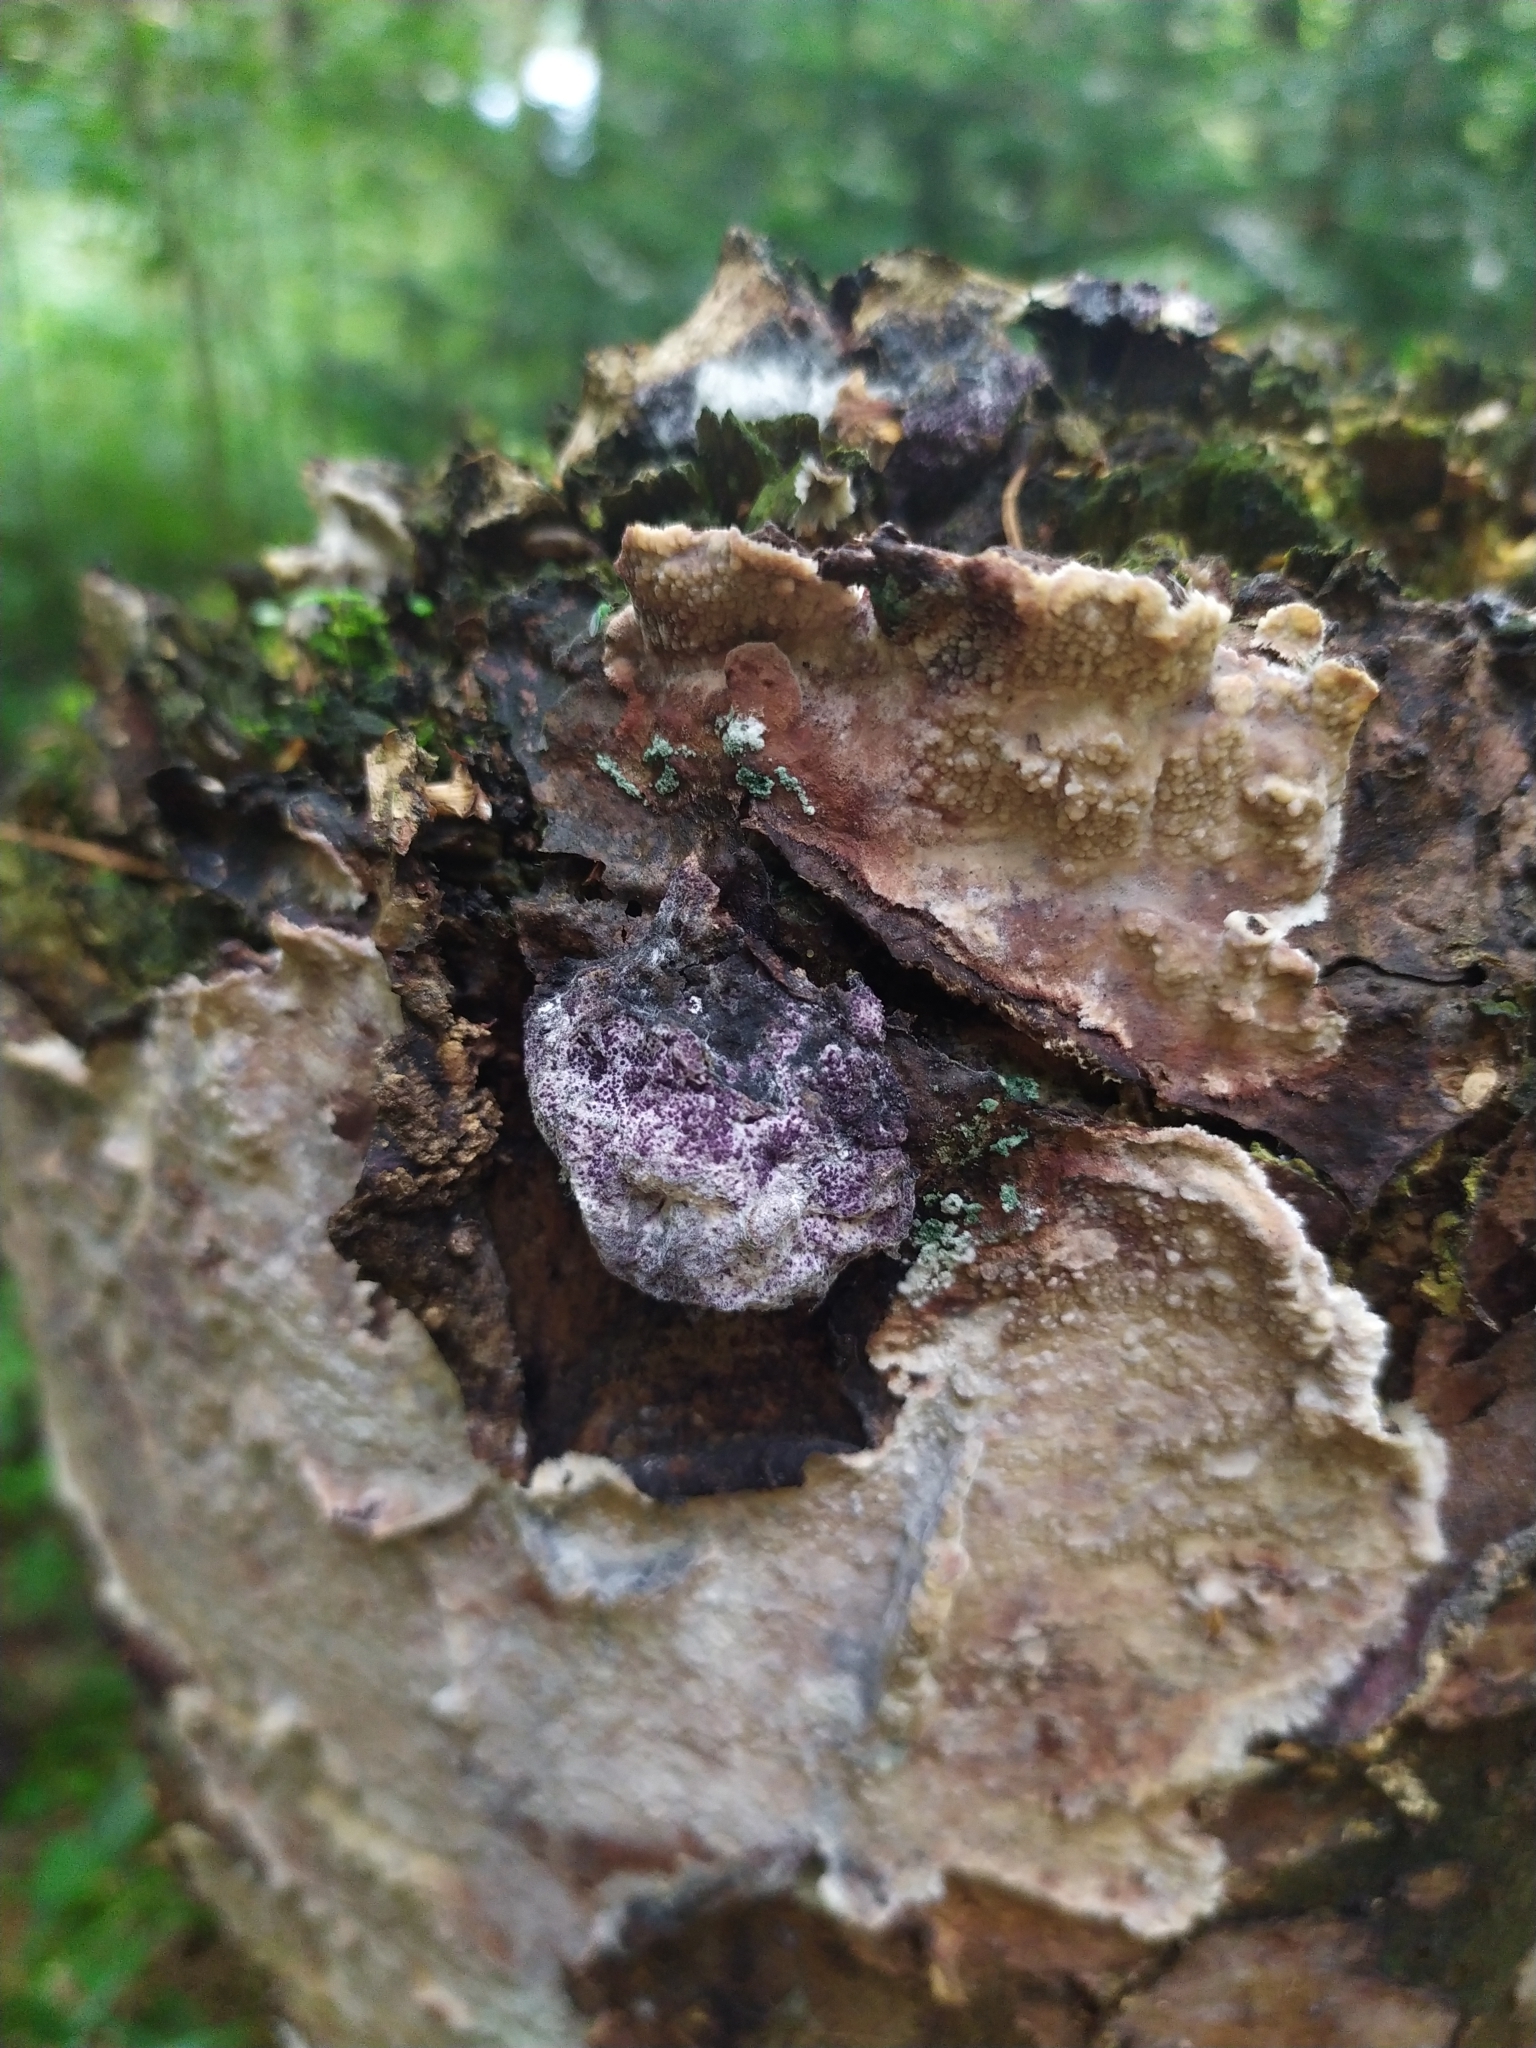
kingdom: Protozoa
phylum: Mycetozoa
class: Myxomycetes
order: Physarales
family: Physaraceae
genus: Fuligo
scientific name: Fuligo septica
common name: Dog vomit slime mold
